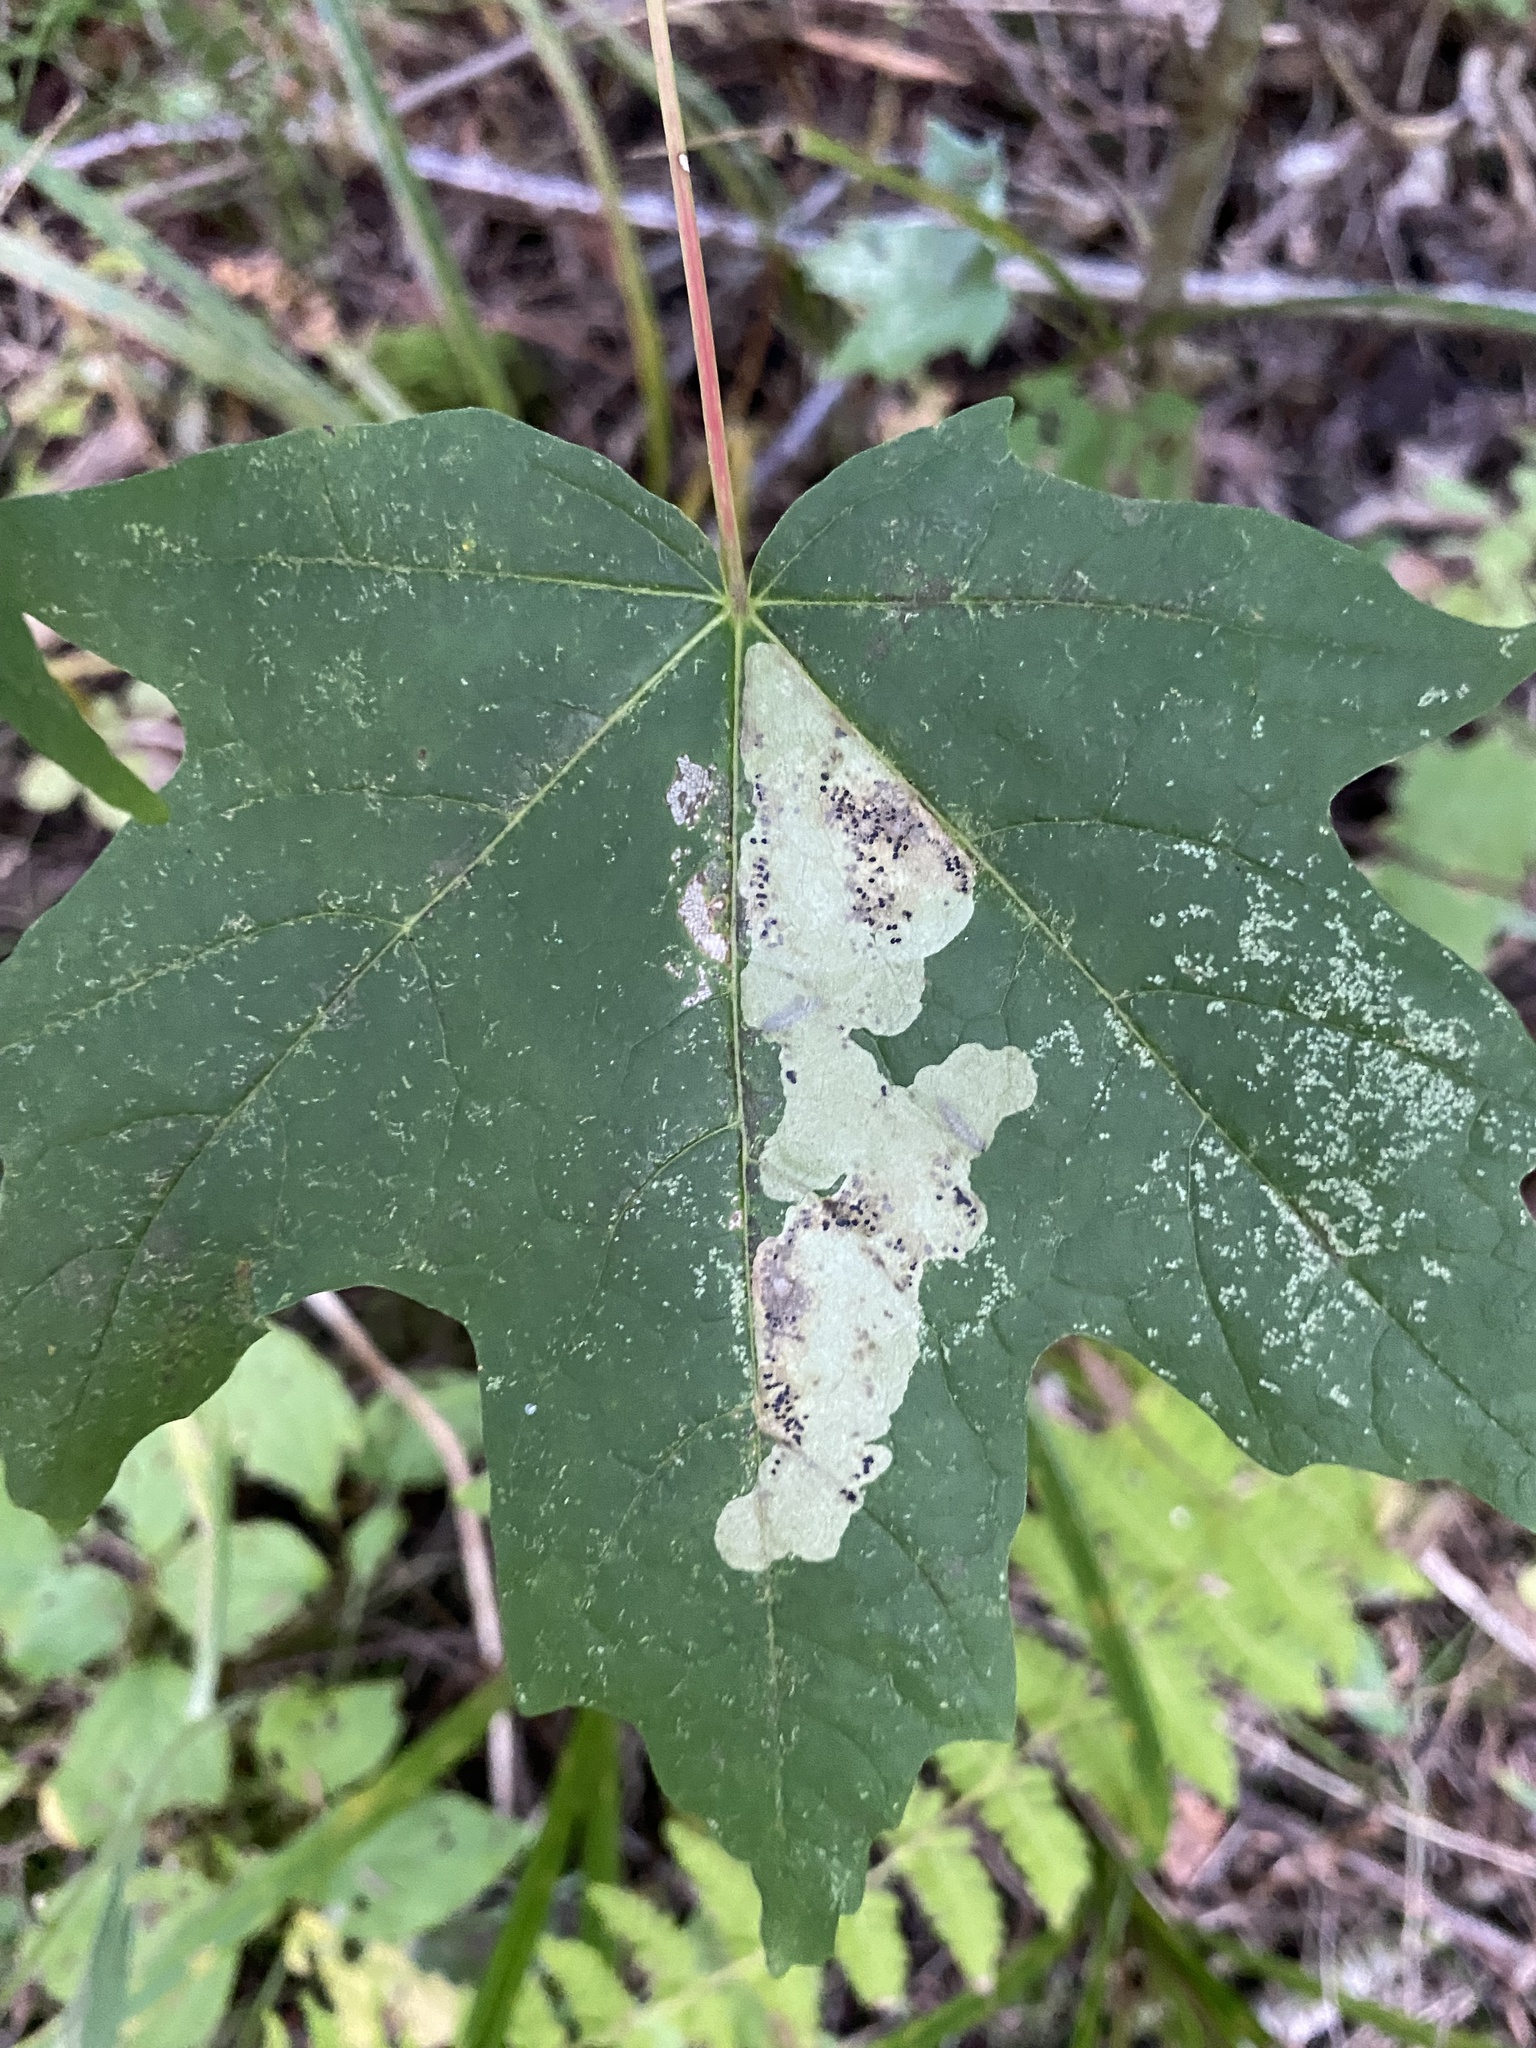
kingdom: Animalia
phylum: Arthropoda
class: Insecta
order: Lepidoptera
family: Gracillariidae
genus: Cameraria
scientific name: Cameraria aceriella
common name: Maple leafblotch miner
